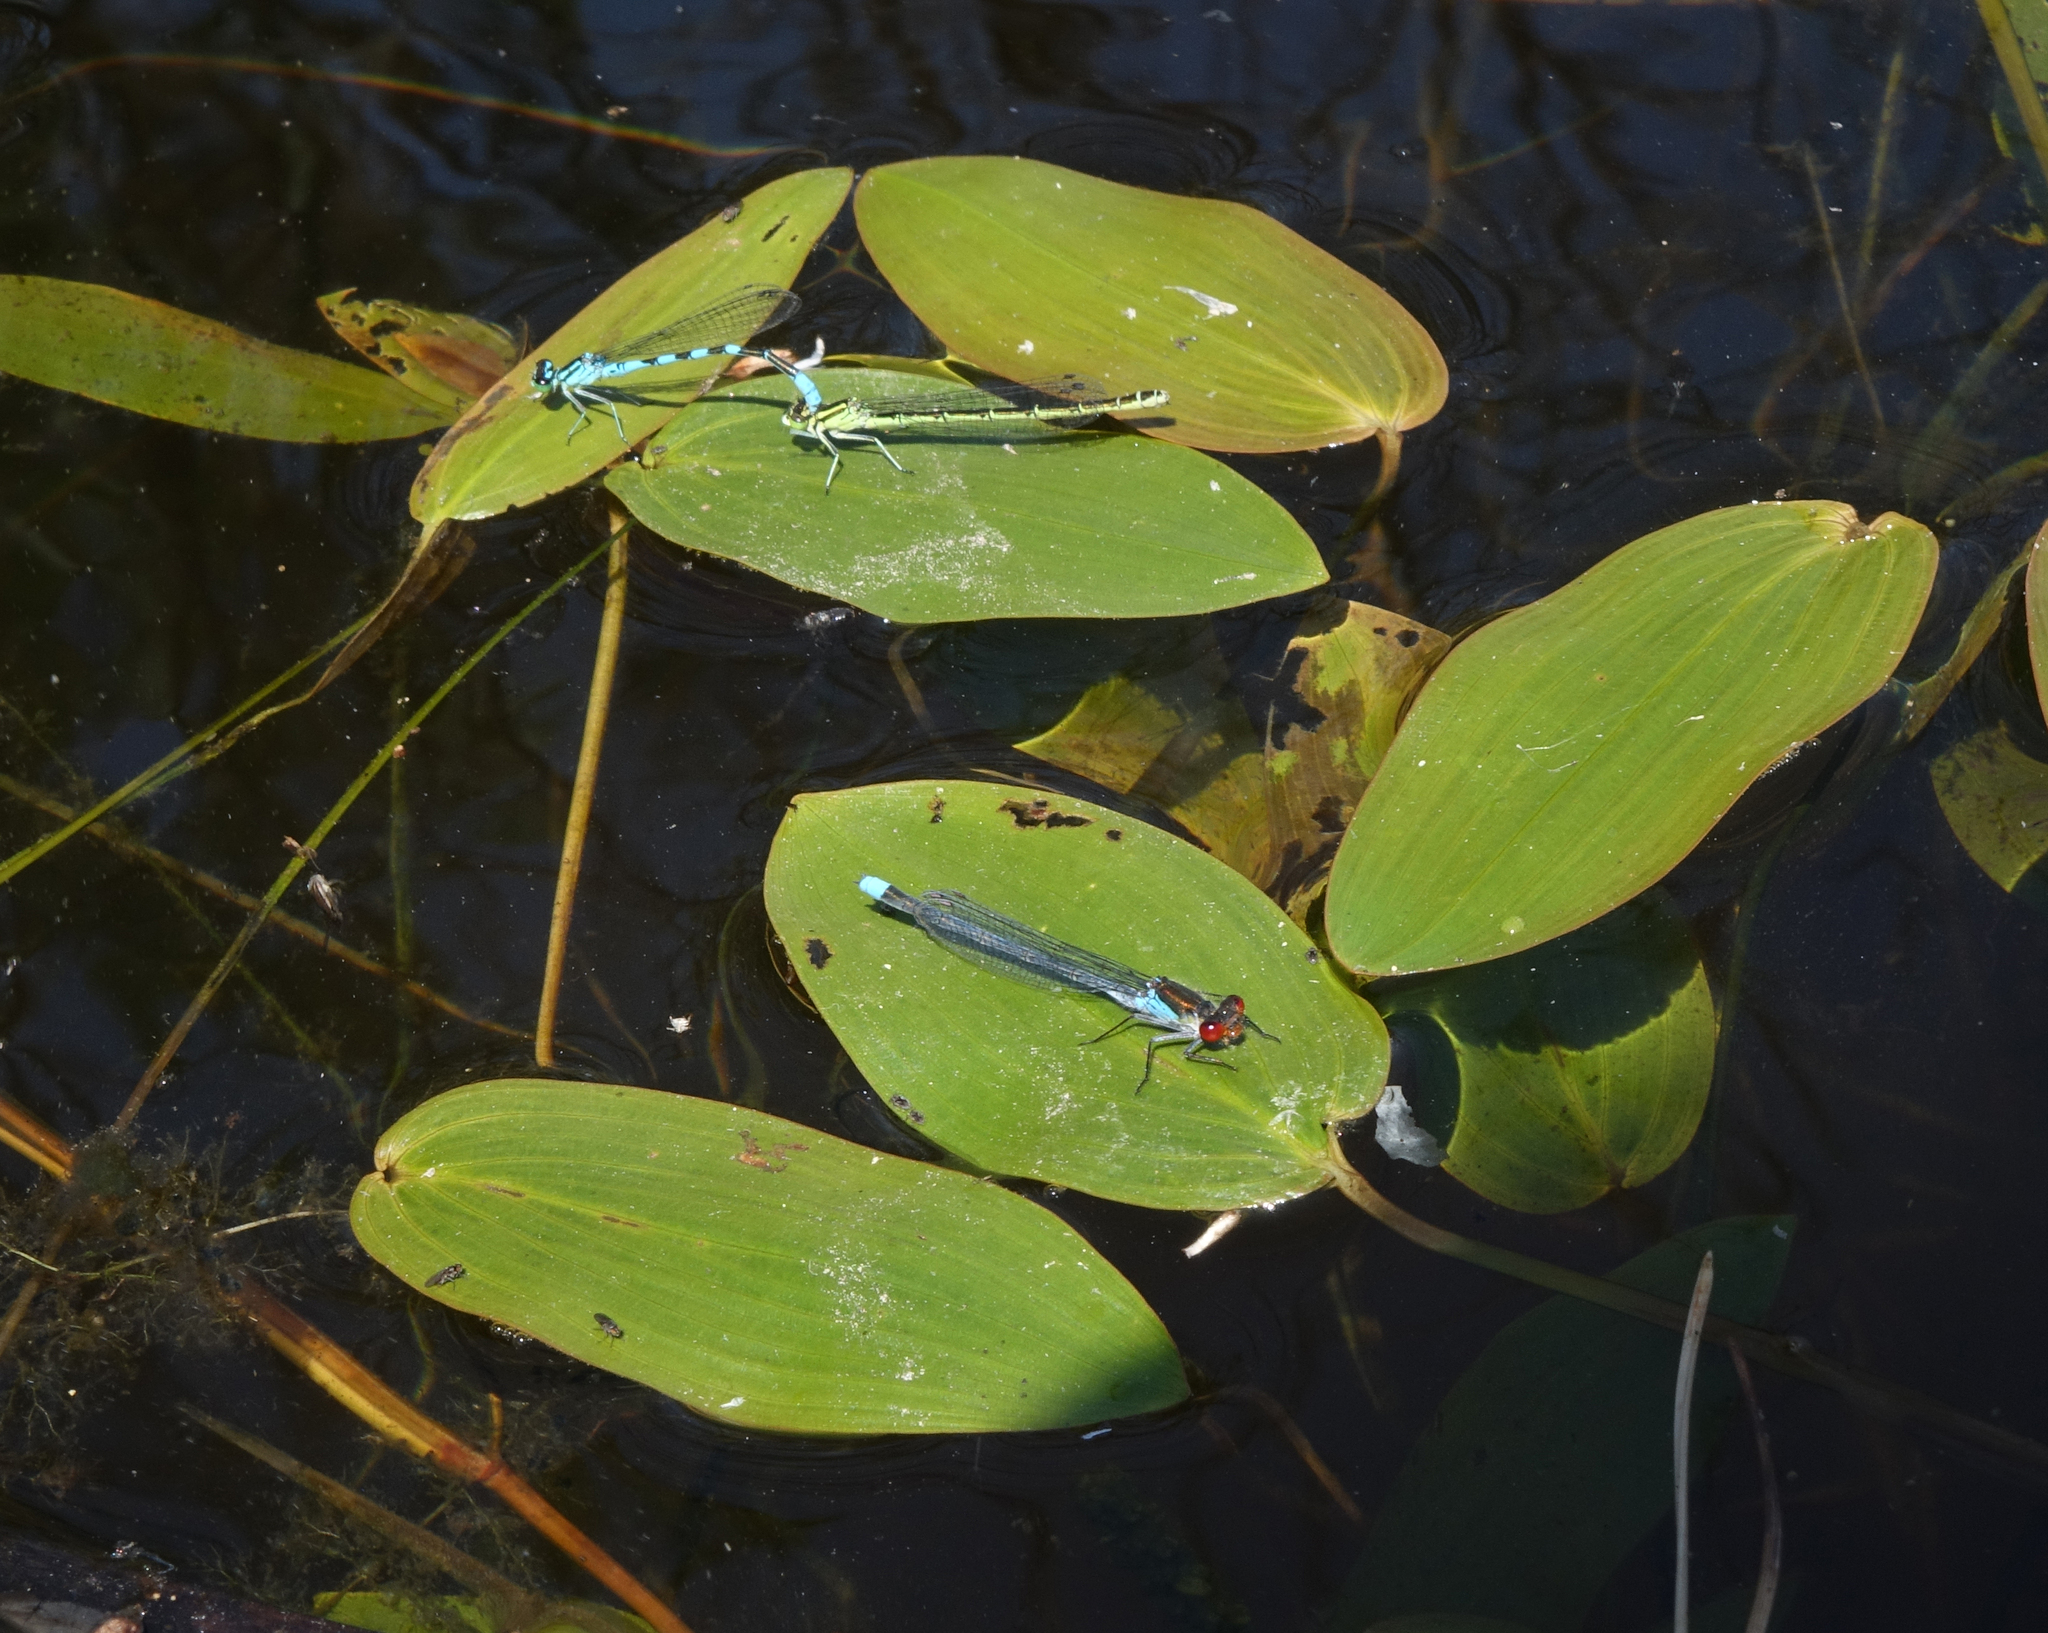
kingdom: Animalia
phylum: Arthropoda
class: Insecta
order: Odonata
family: Coenagrionidae
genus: Erythromma
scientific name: Erythromma najas
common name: Red-eyed damselfly
